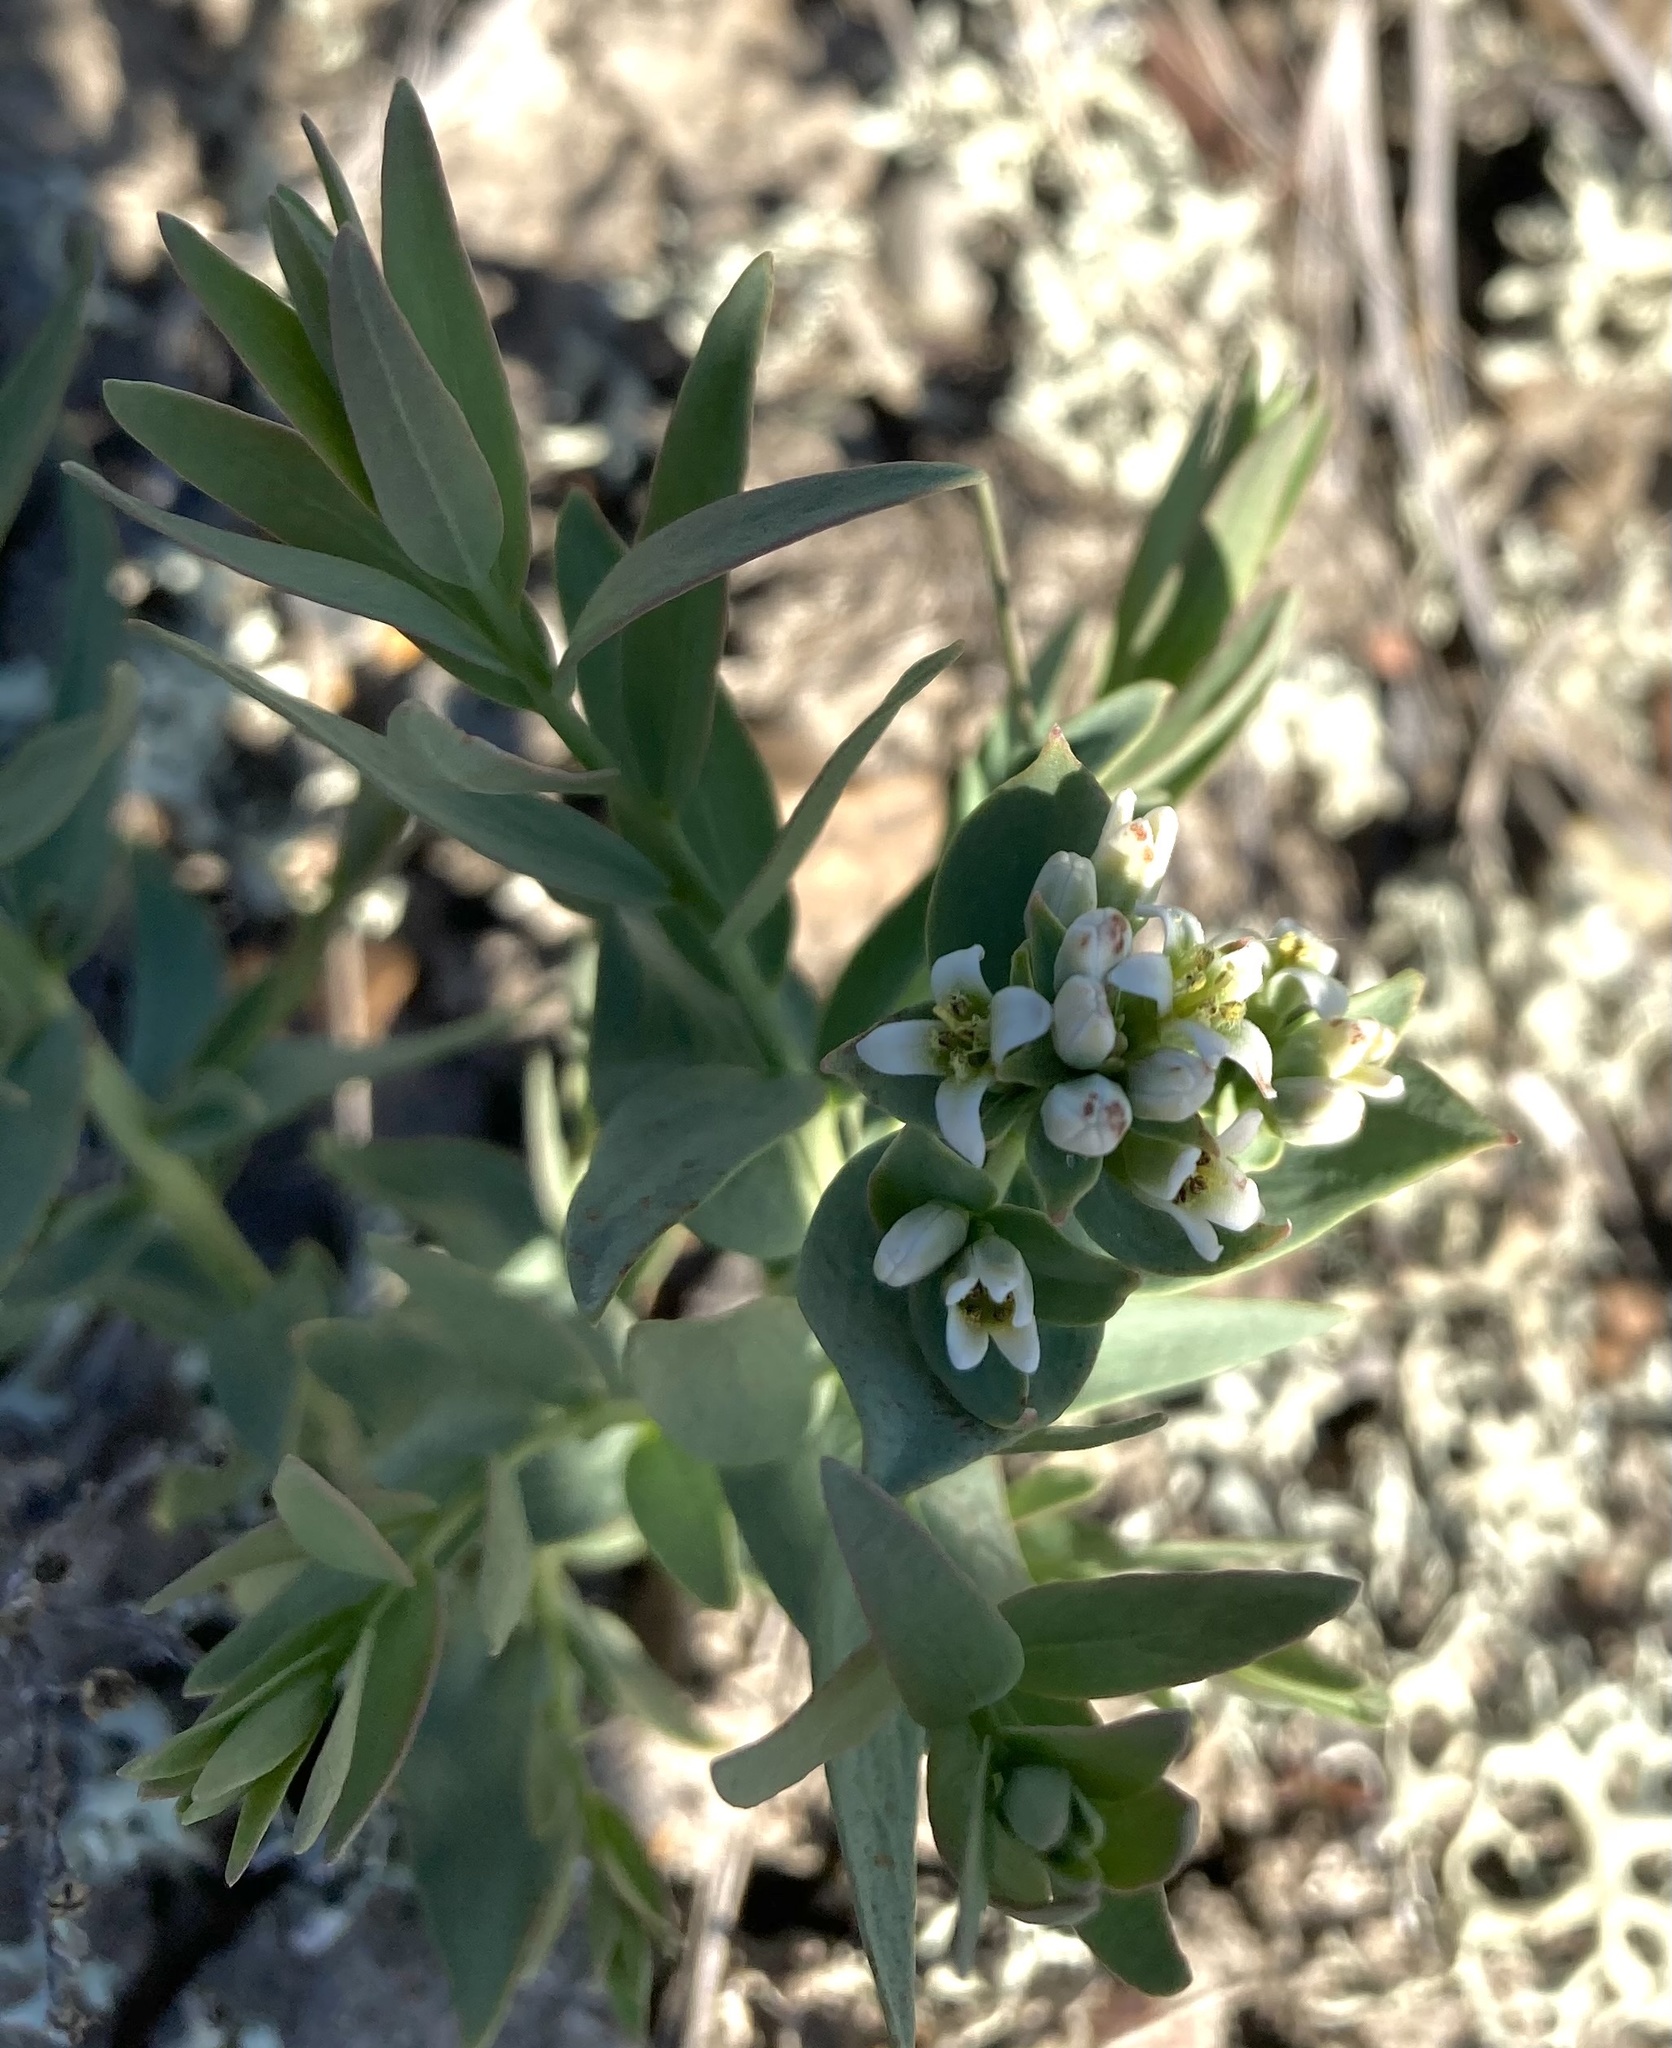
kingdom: Plantae
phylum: Tracheophyta
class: Magnoliopsida
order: Santalales
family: Comandraceae
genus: Comandra
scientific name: Comandra umbellata
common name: Bastard toadflax
